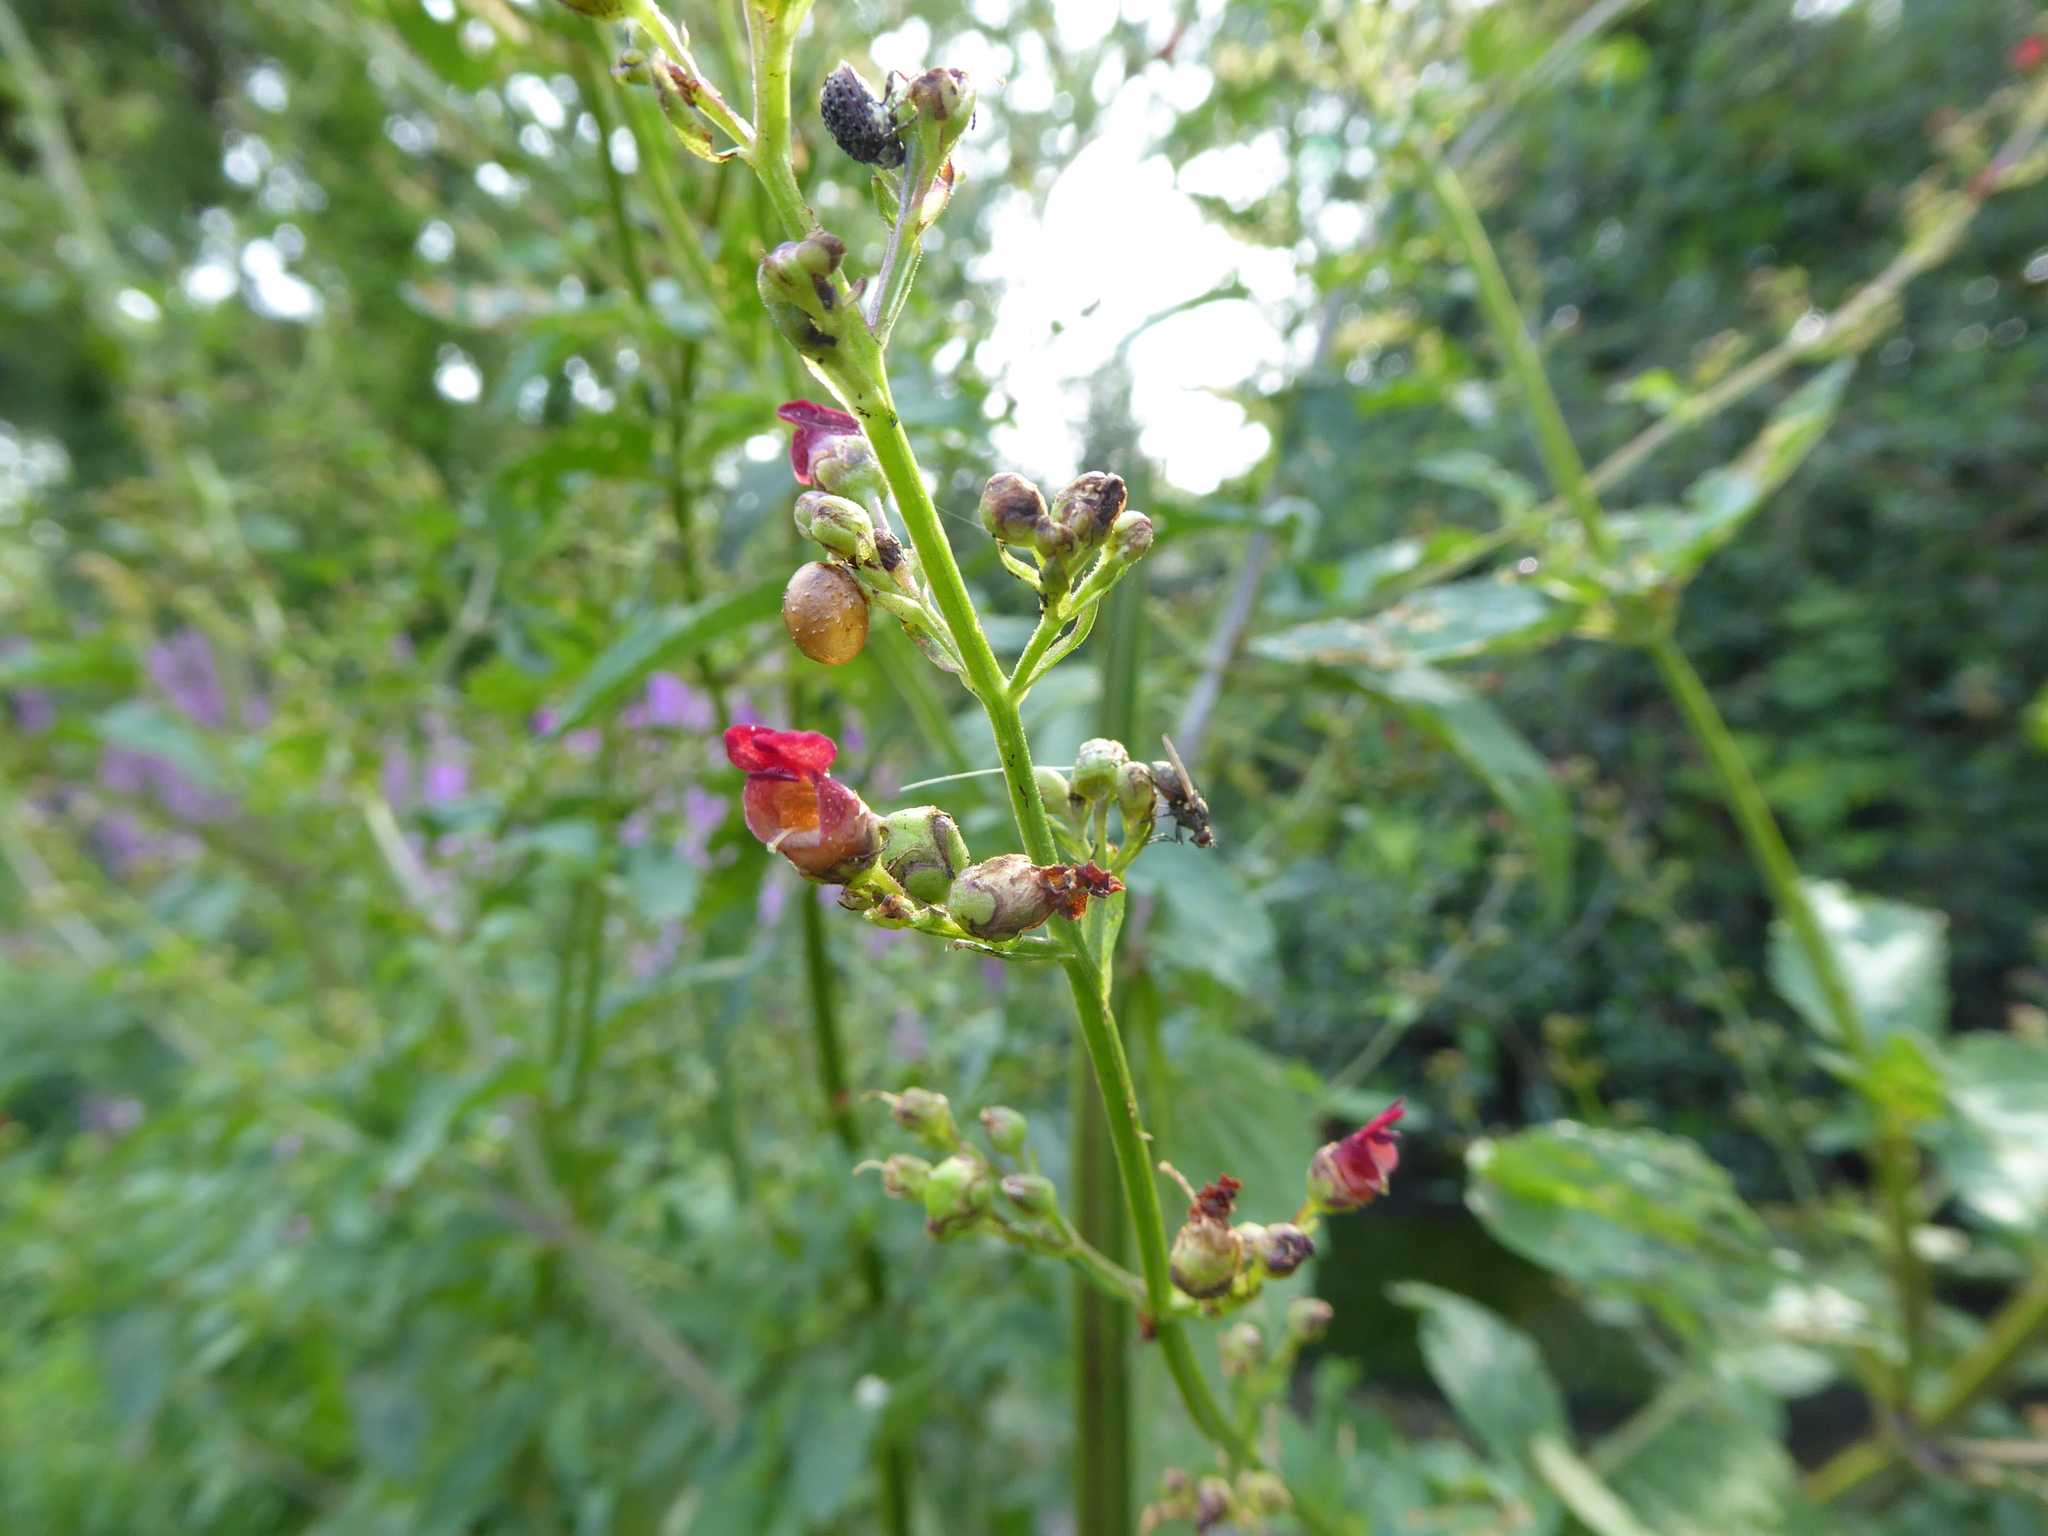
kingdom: Plantae
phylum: Tracheophyta
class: Magnoliopsida
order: Lamiales
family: Scrophulariaceae
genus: Scrophularia
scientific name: Scrophularia auriculata
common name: Water betony
